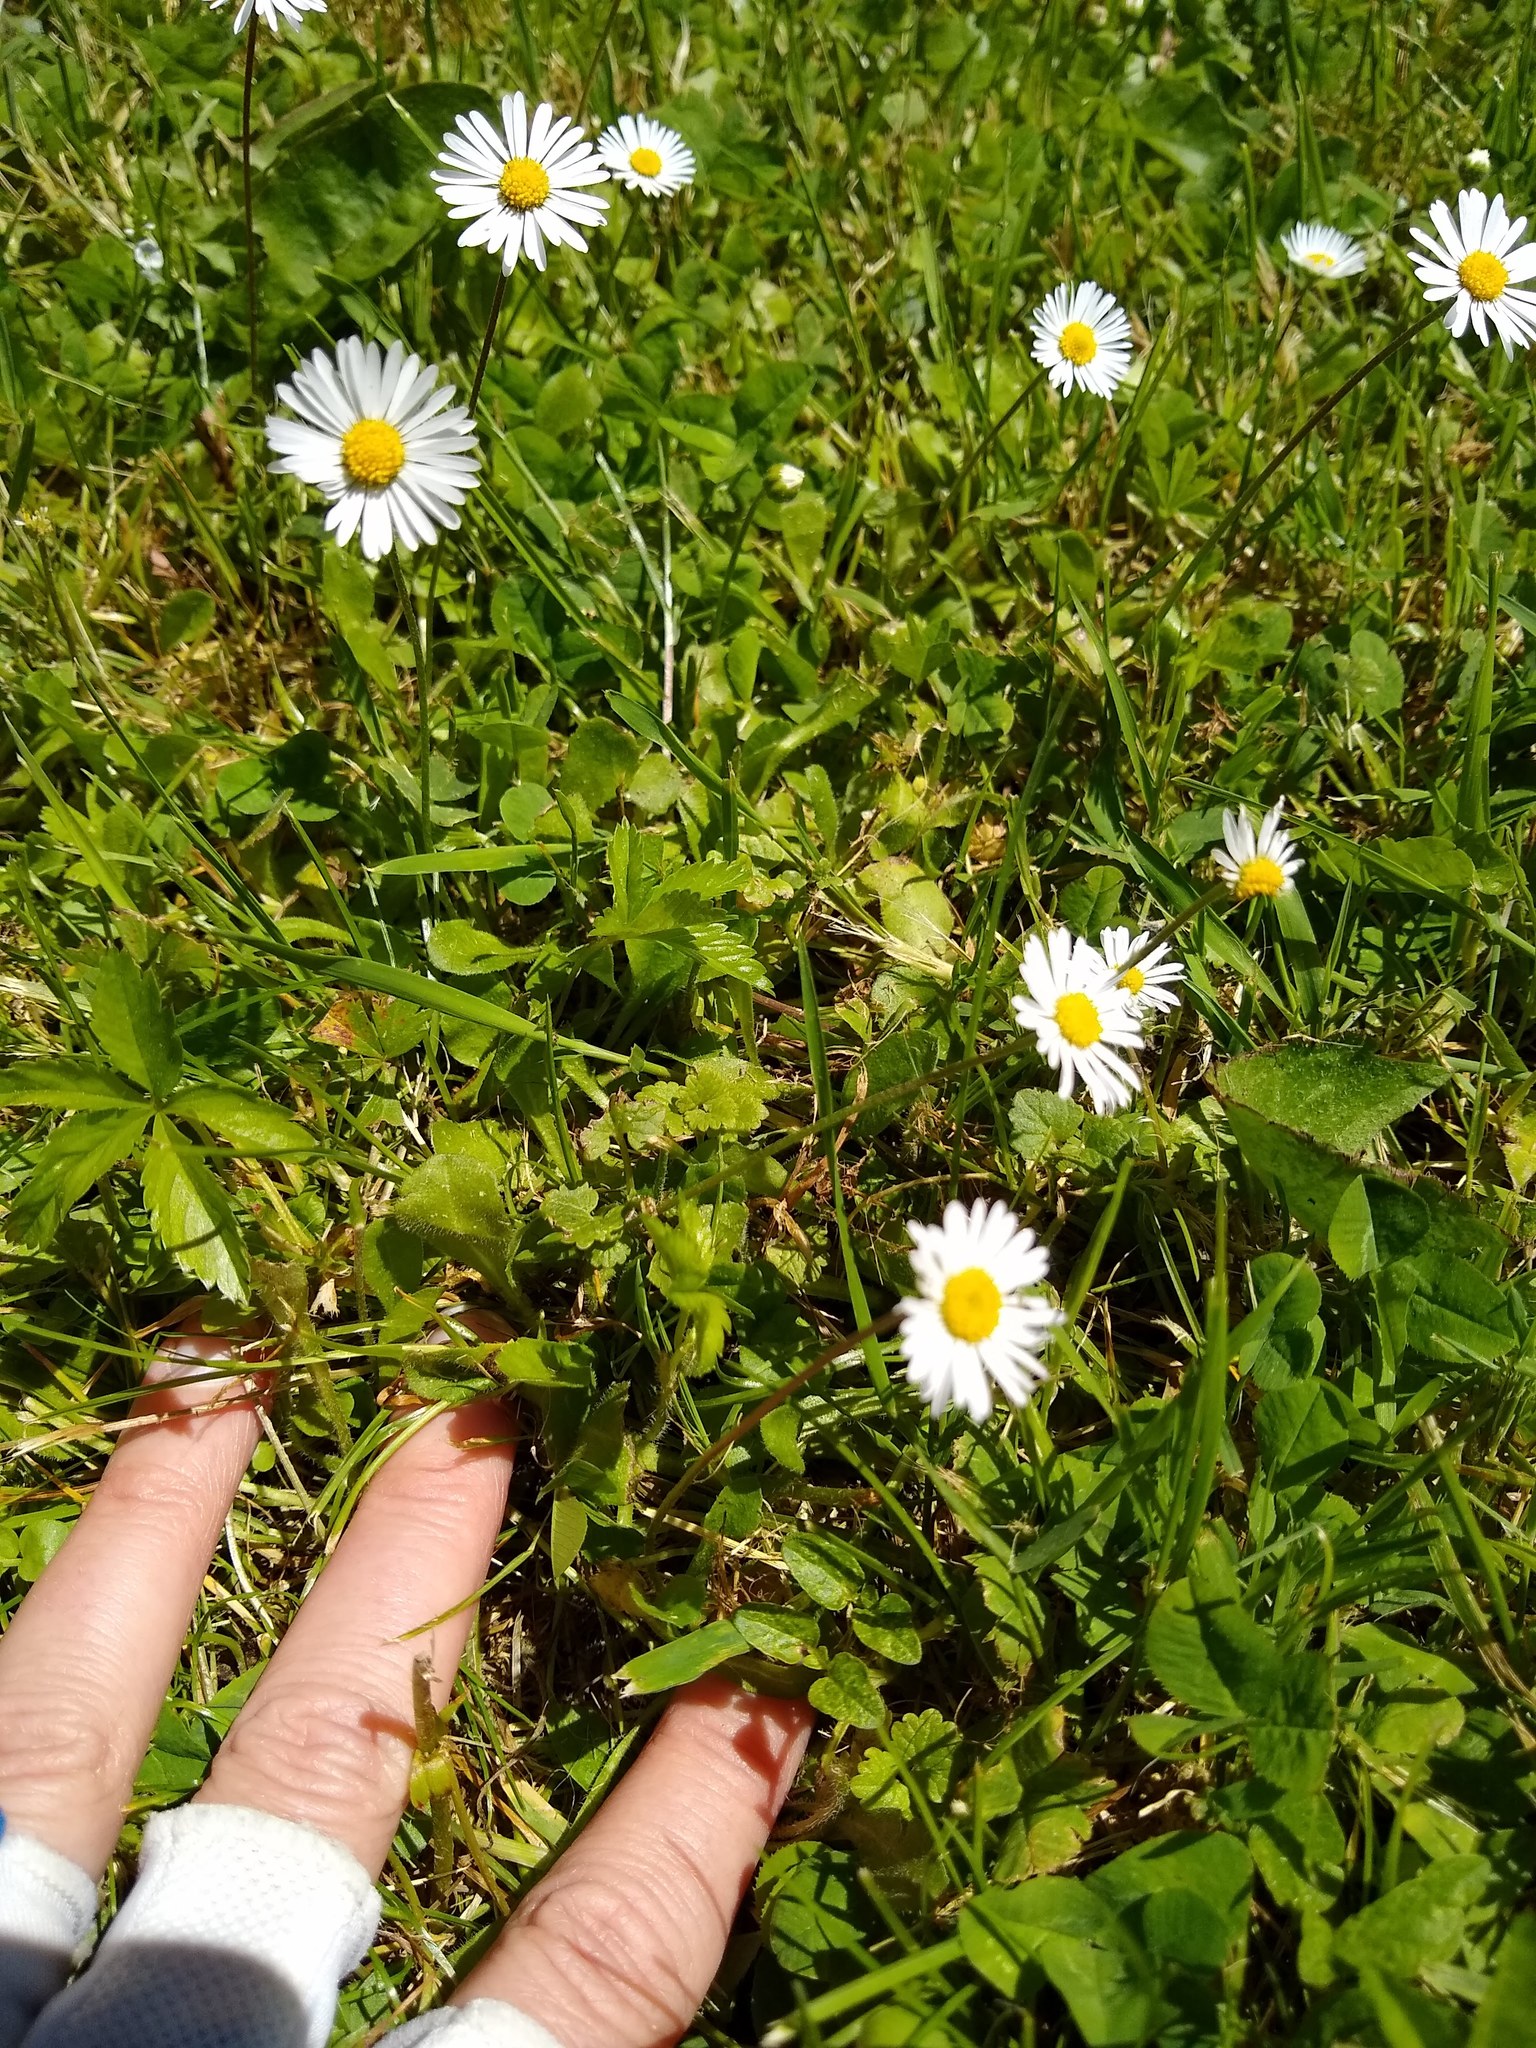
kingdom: Plantae
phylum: Tracheophyta
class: Magnoliopsida
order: Asterales
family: Asteraceae
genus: Bellis
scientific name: Bellis perennis
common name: Lawndaisy
